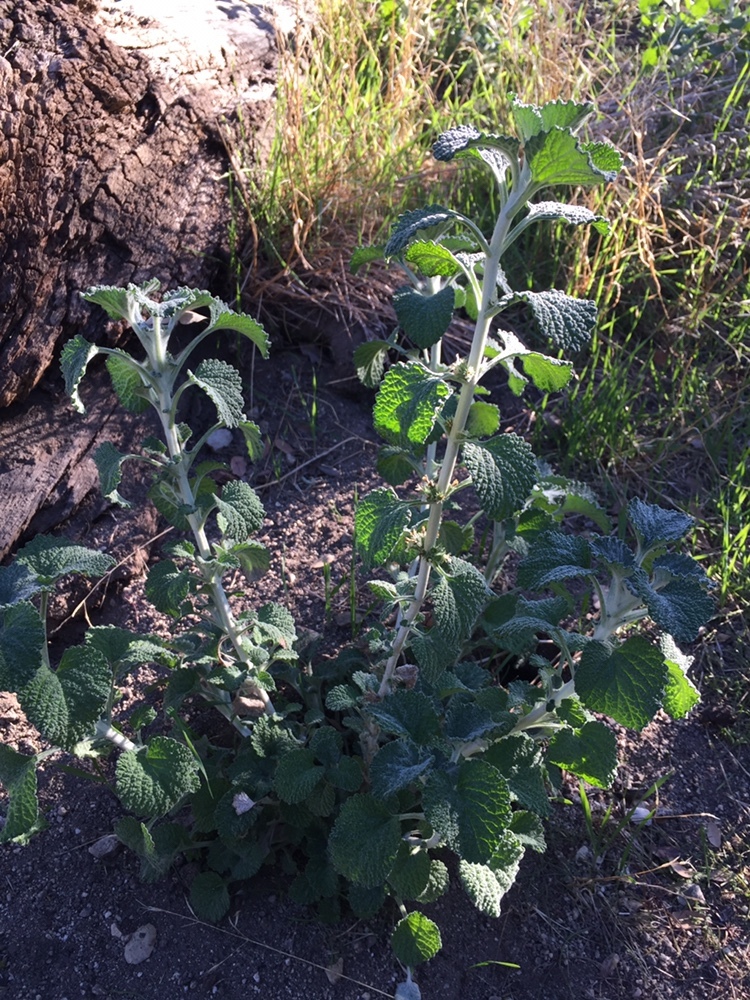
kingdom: Plantae
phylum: Tracheophyta
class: Magnoliopsida
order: Lamiales
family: Lamiaceae
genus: Marrubium
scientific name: Marrubium vulgare
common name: Horehound
